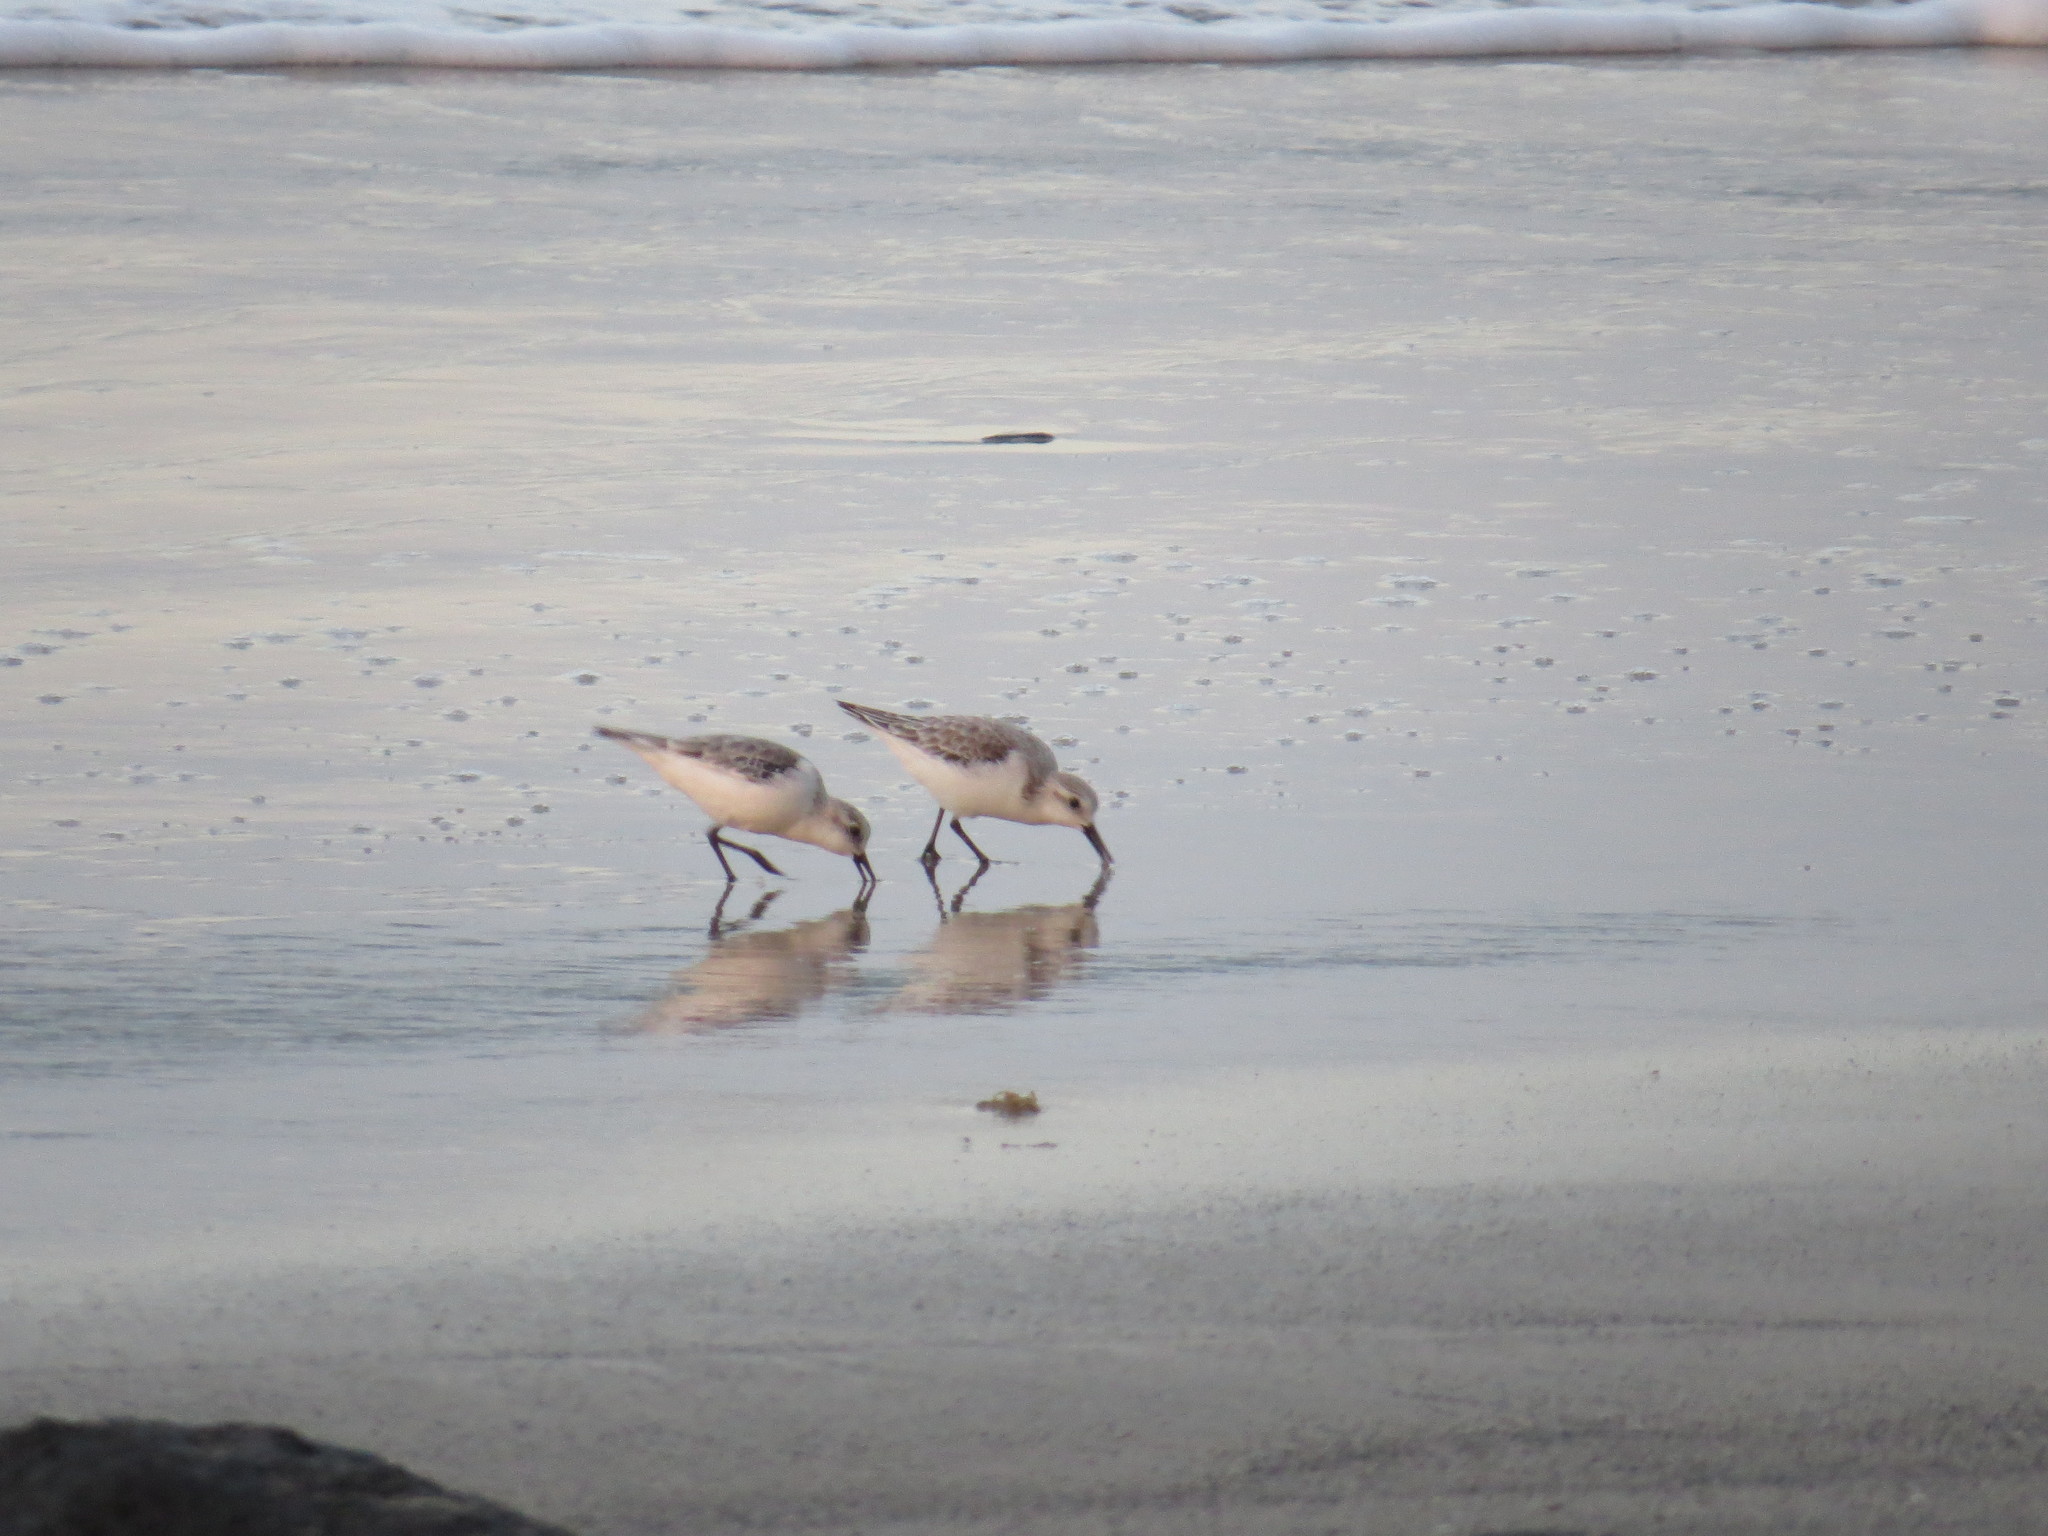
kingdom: Animalia
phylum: Chordata
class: Aves
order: Charadriiformes
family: Scolopacidae
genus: Calidris
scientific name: Calidris alba
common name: Sanderling
